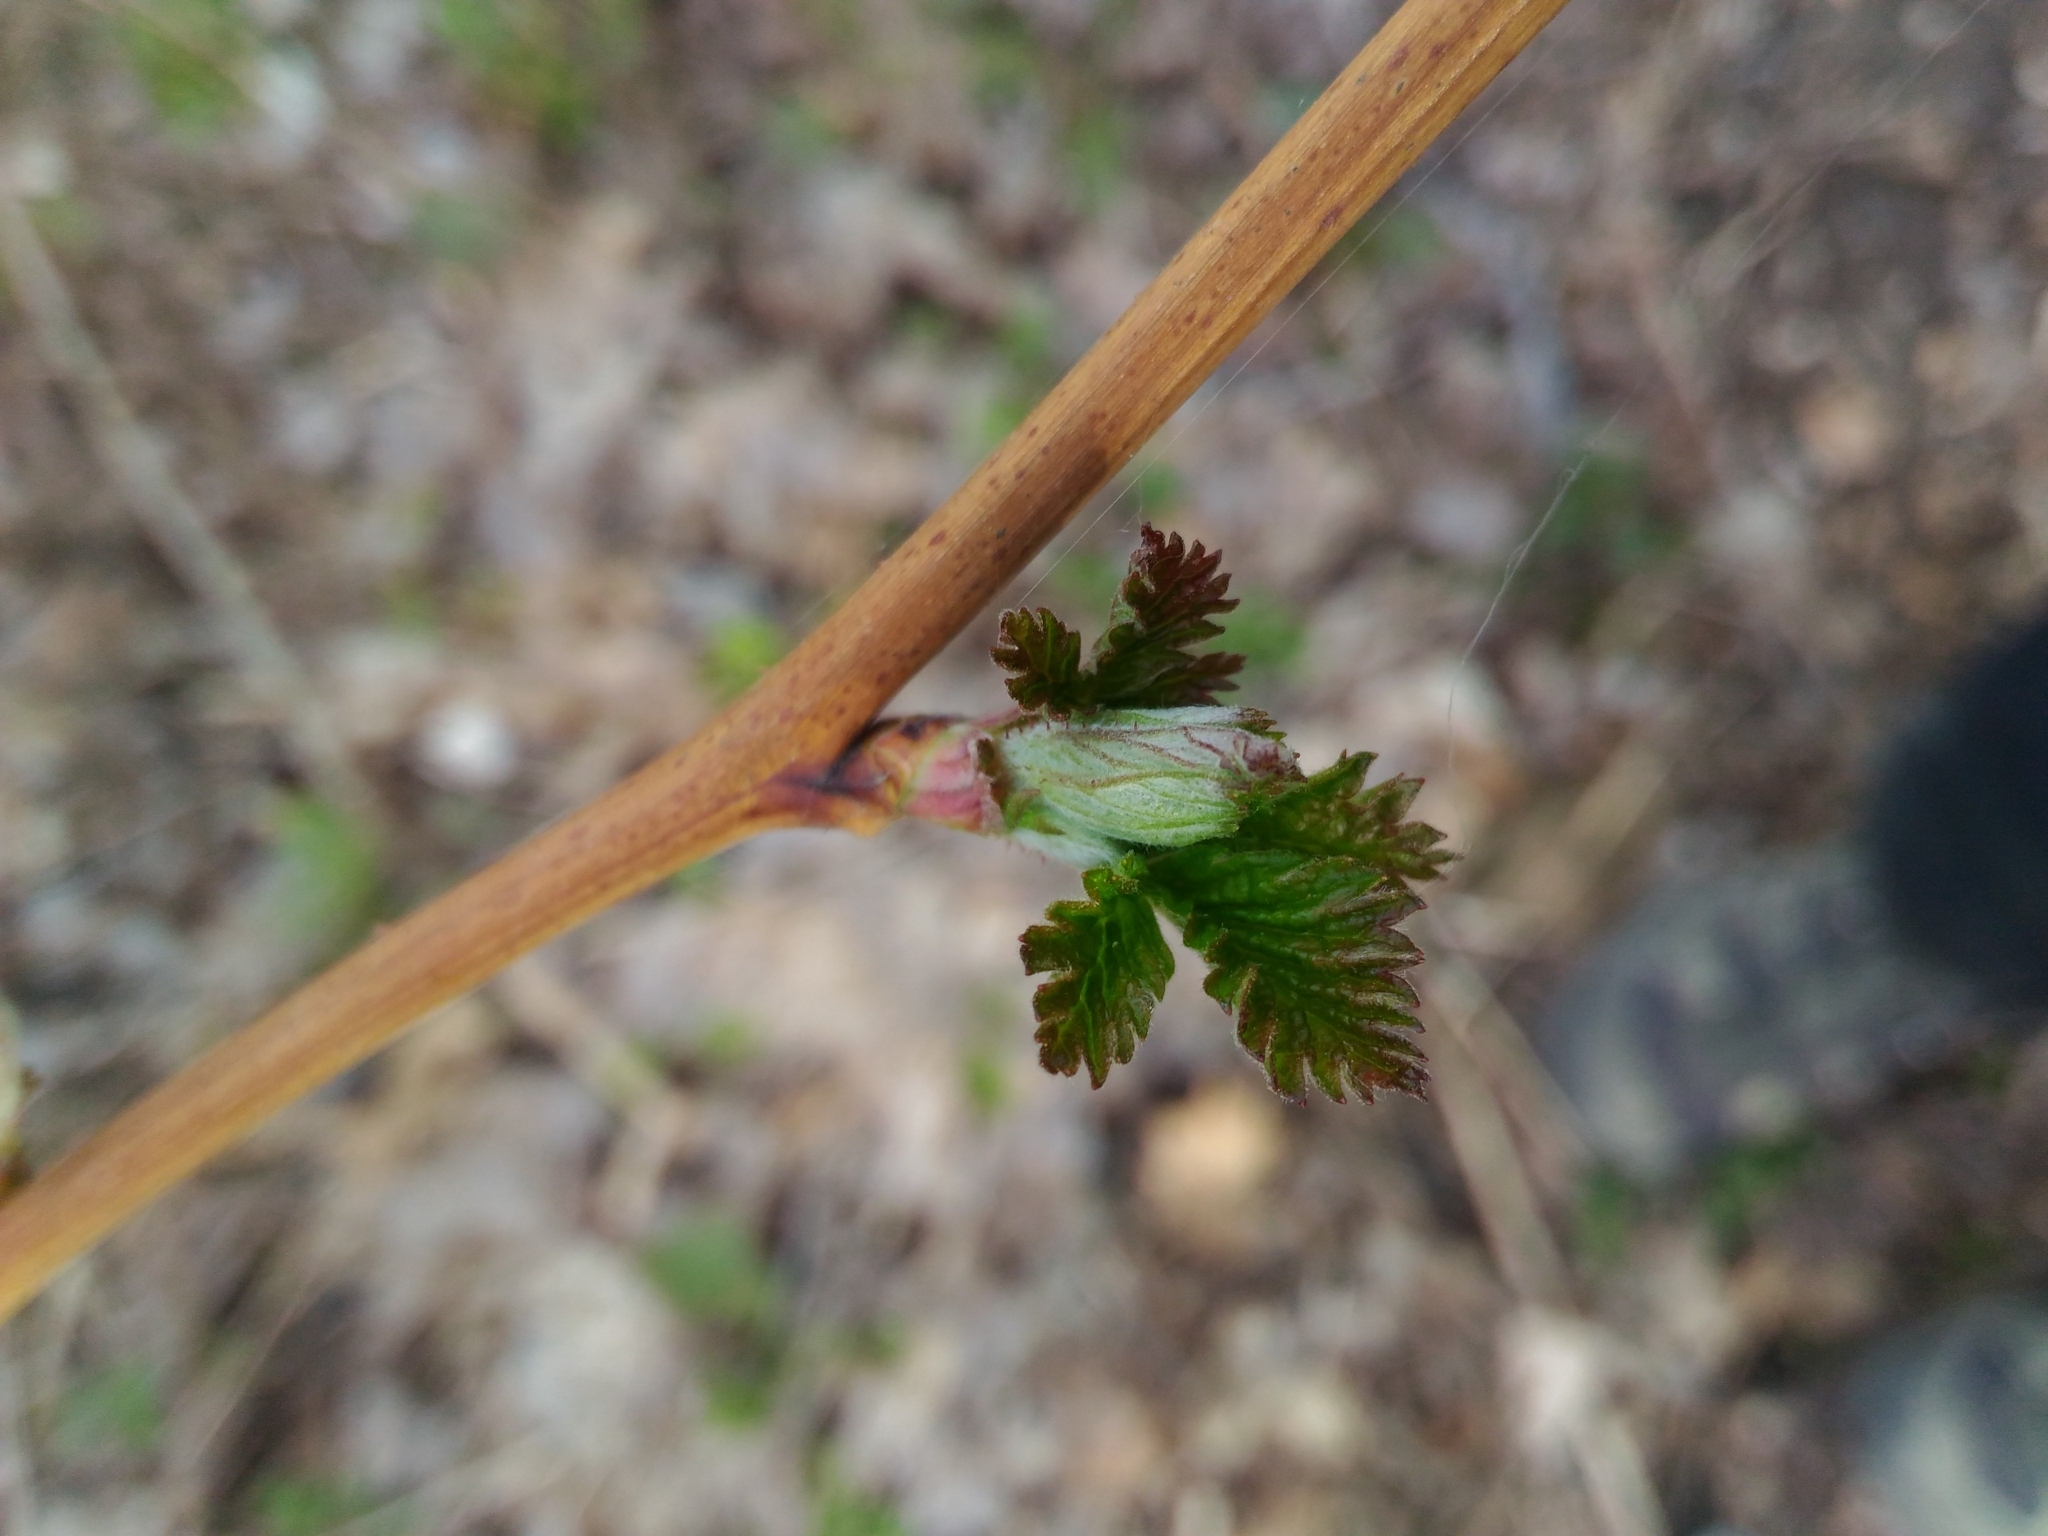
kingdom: Plantae
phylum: Tracheophyta
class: Magnoliopsida
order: Rosales
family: Rosaceae
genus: Rubus
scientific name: Rubus idaeus
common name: Raspberry
